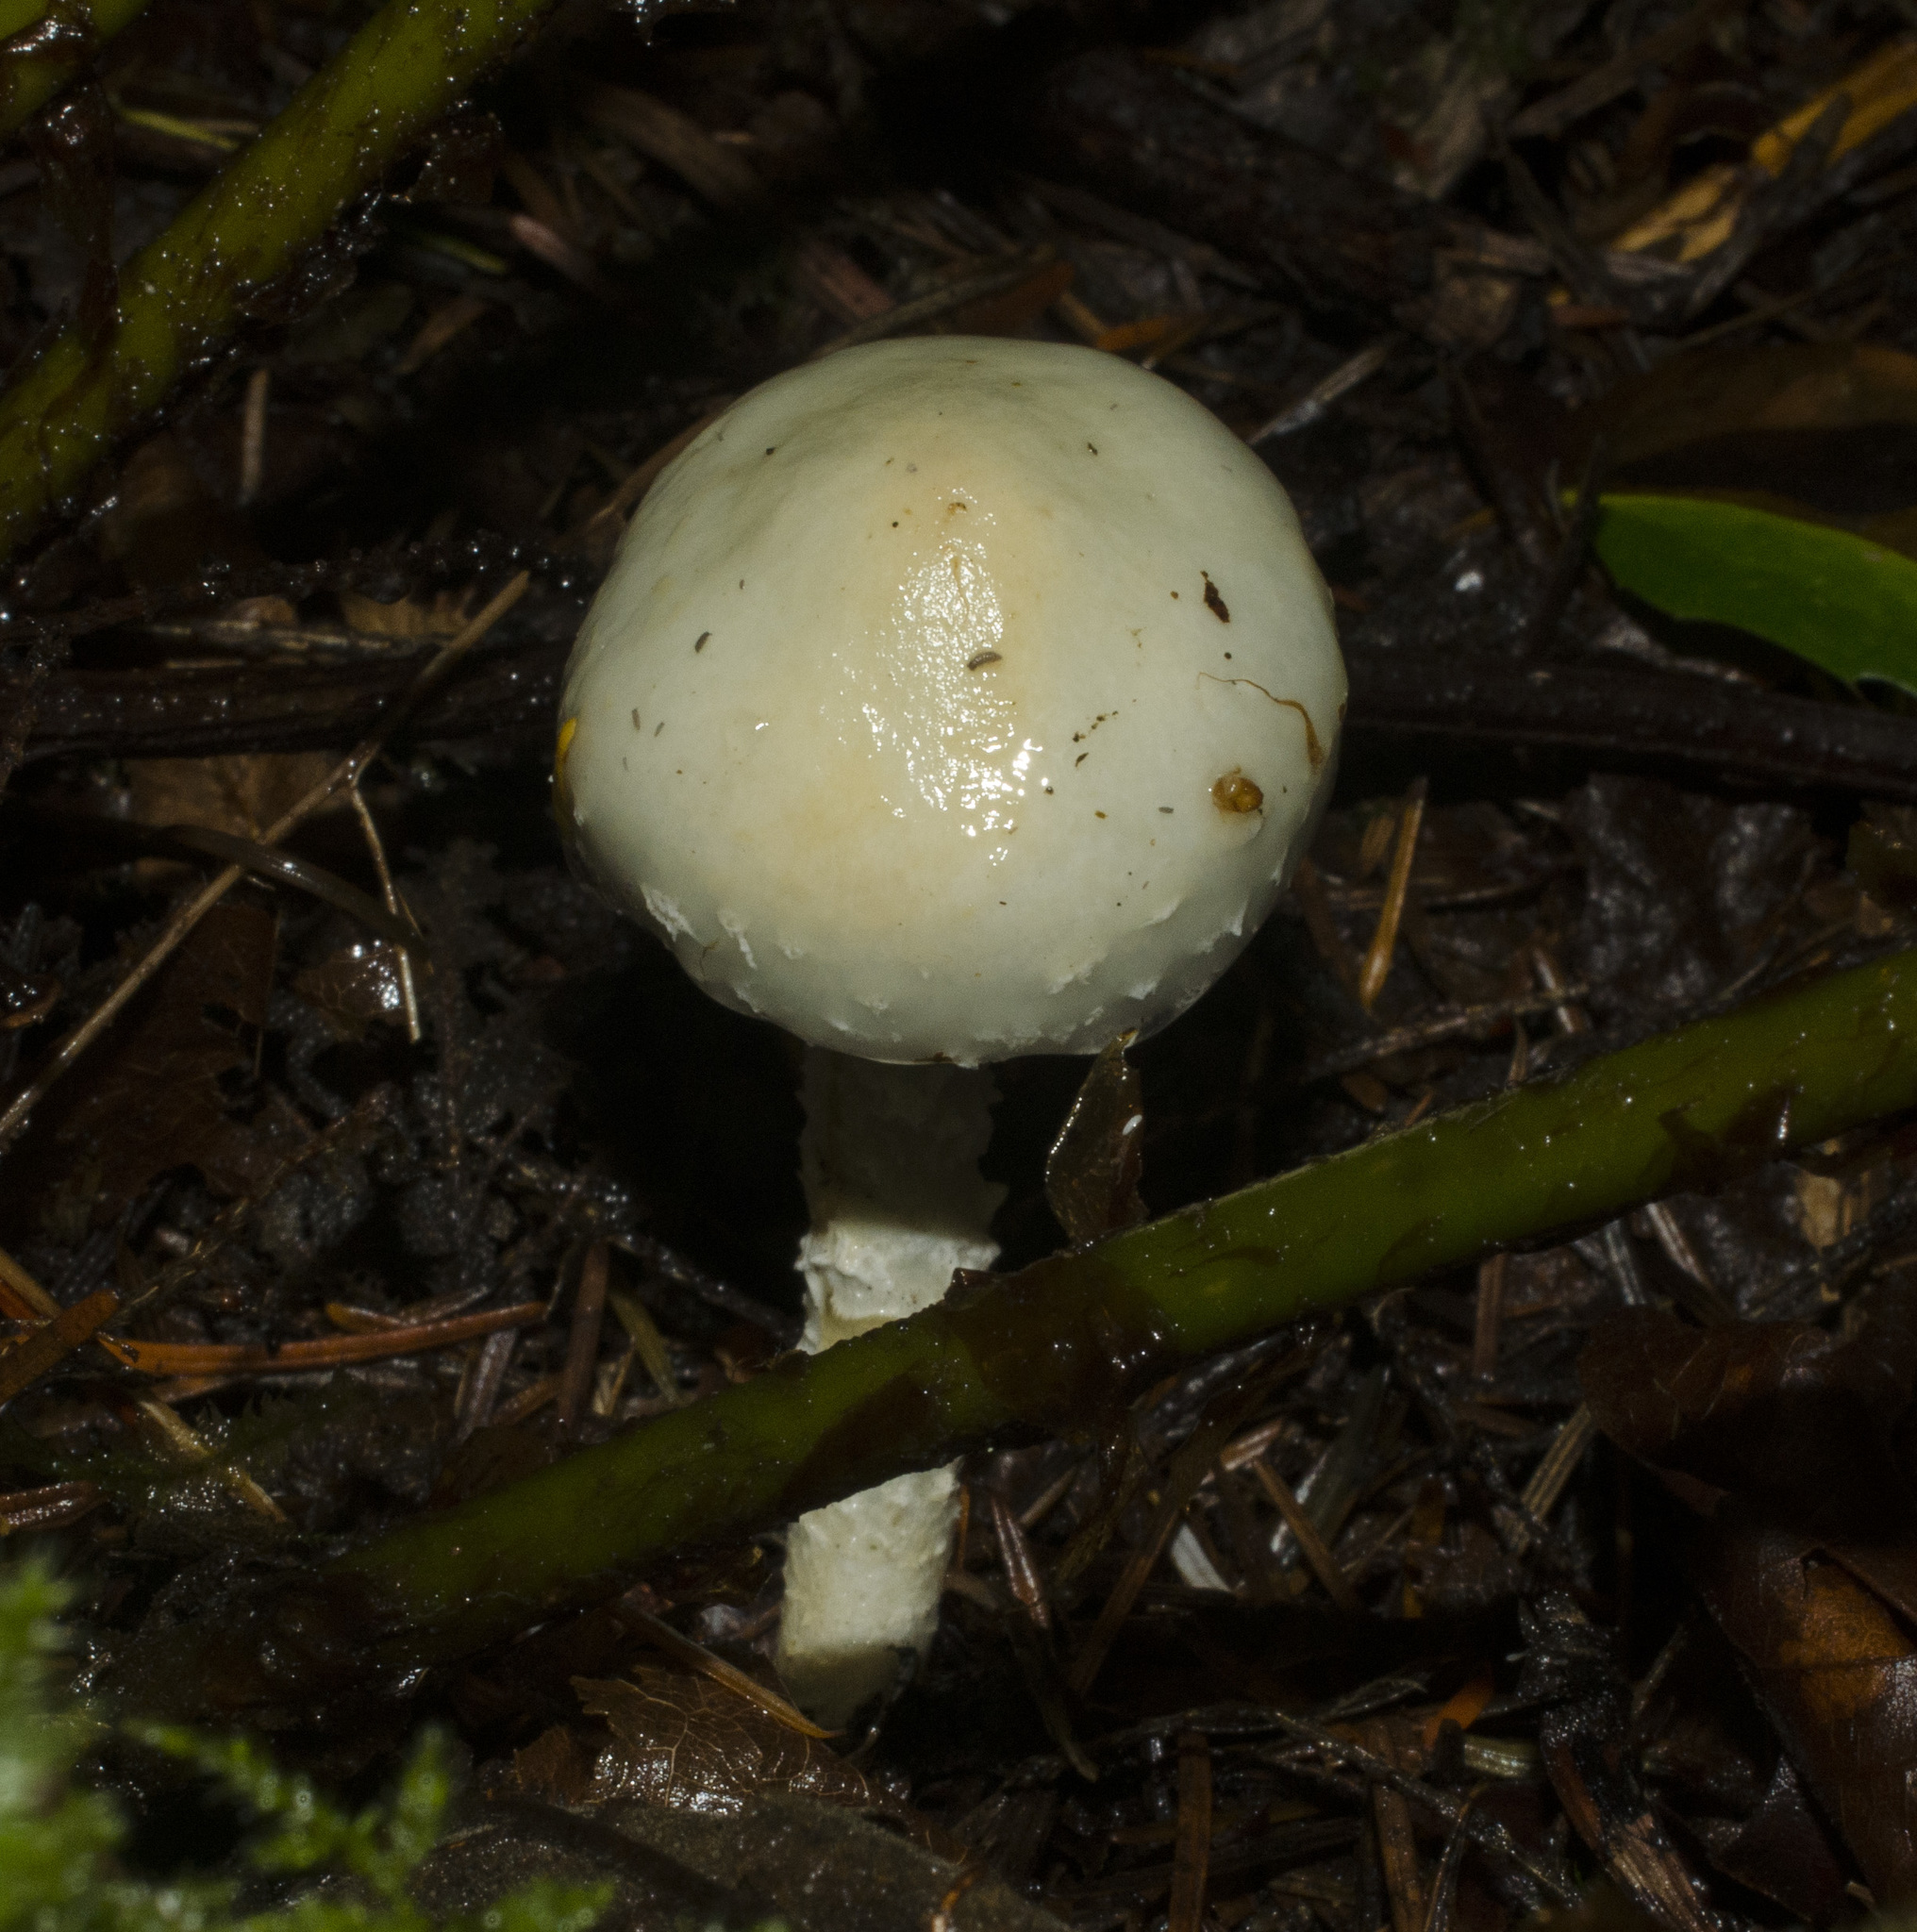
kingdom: Fungi
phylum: Basidiomycota
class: Agaricomycetes
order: Agaricales
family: Strophariaceae
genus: Stropharia
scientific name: Stropharia aeruginosa
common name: Verdigris roundhead
